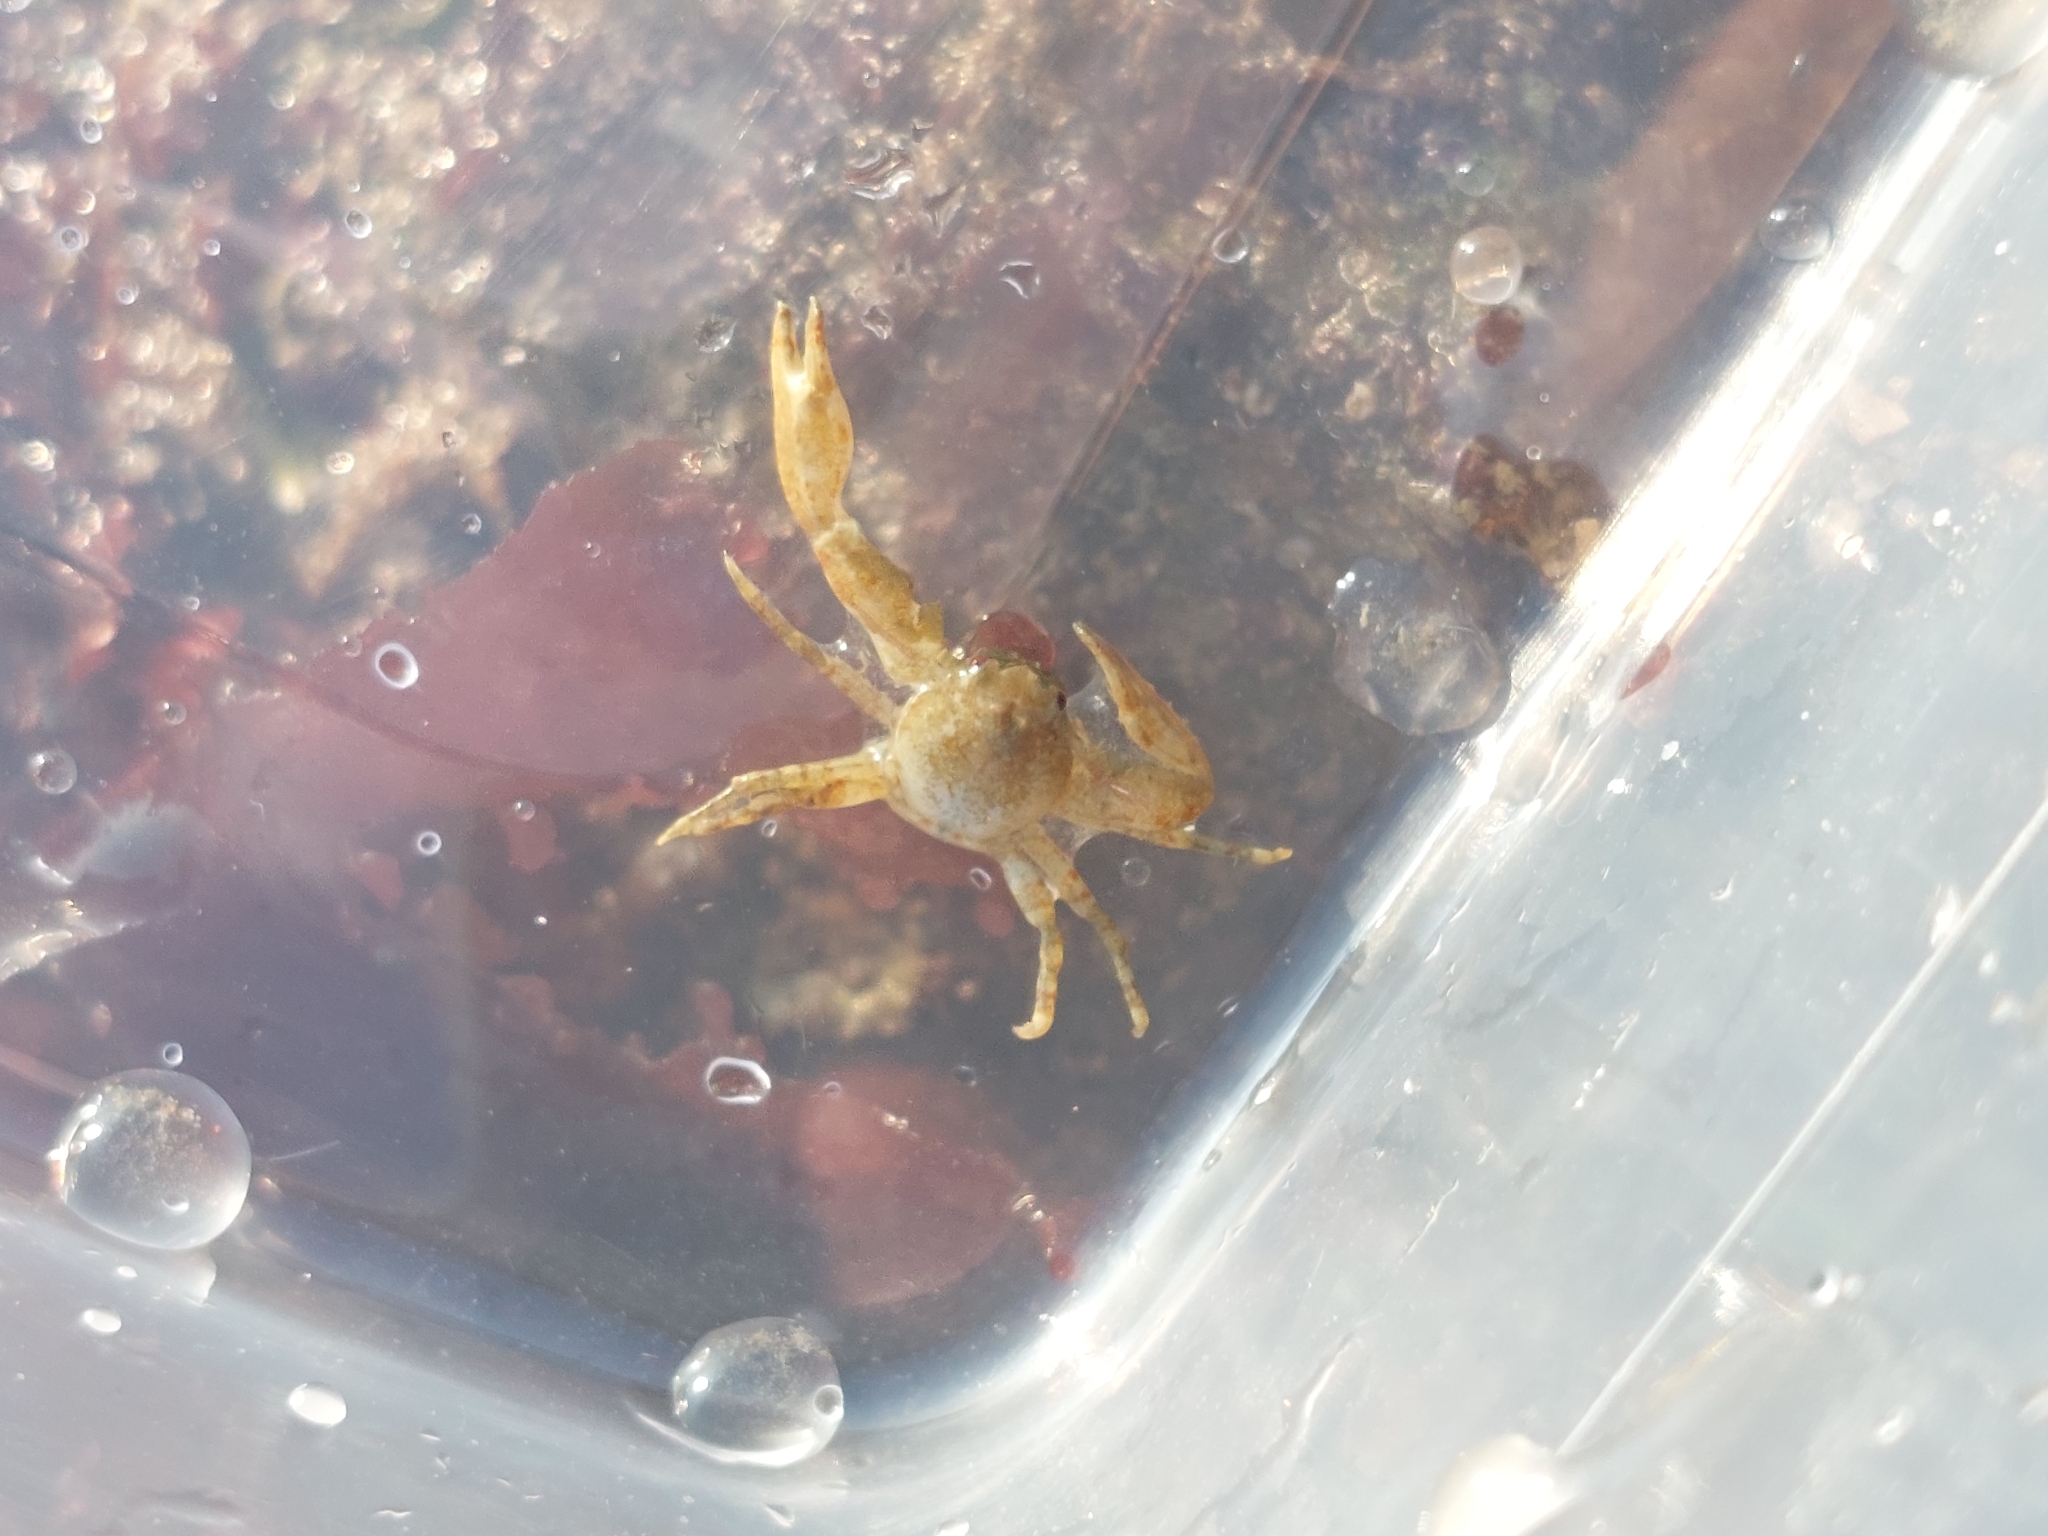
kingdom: Animalia
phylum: Arthropoda
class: Malacostraca
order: Decapoda
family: Porcellanidae
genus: Pisidia
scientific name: Pisidia longicornis
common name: Long clawed porcelain crab
